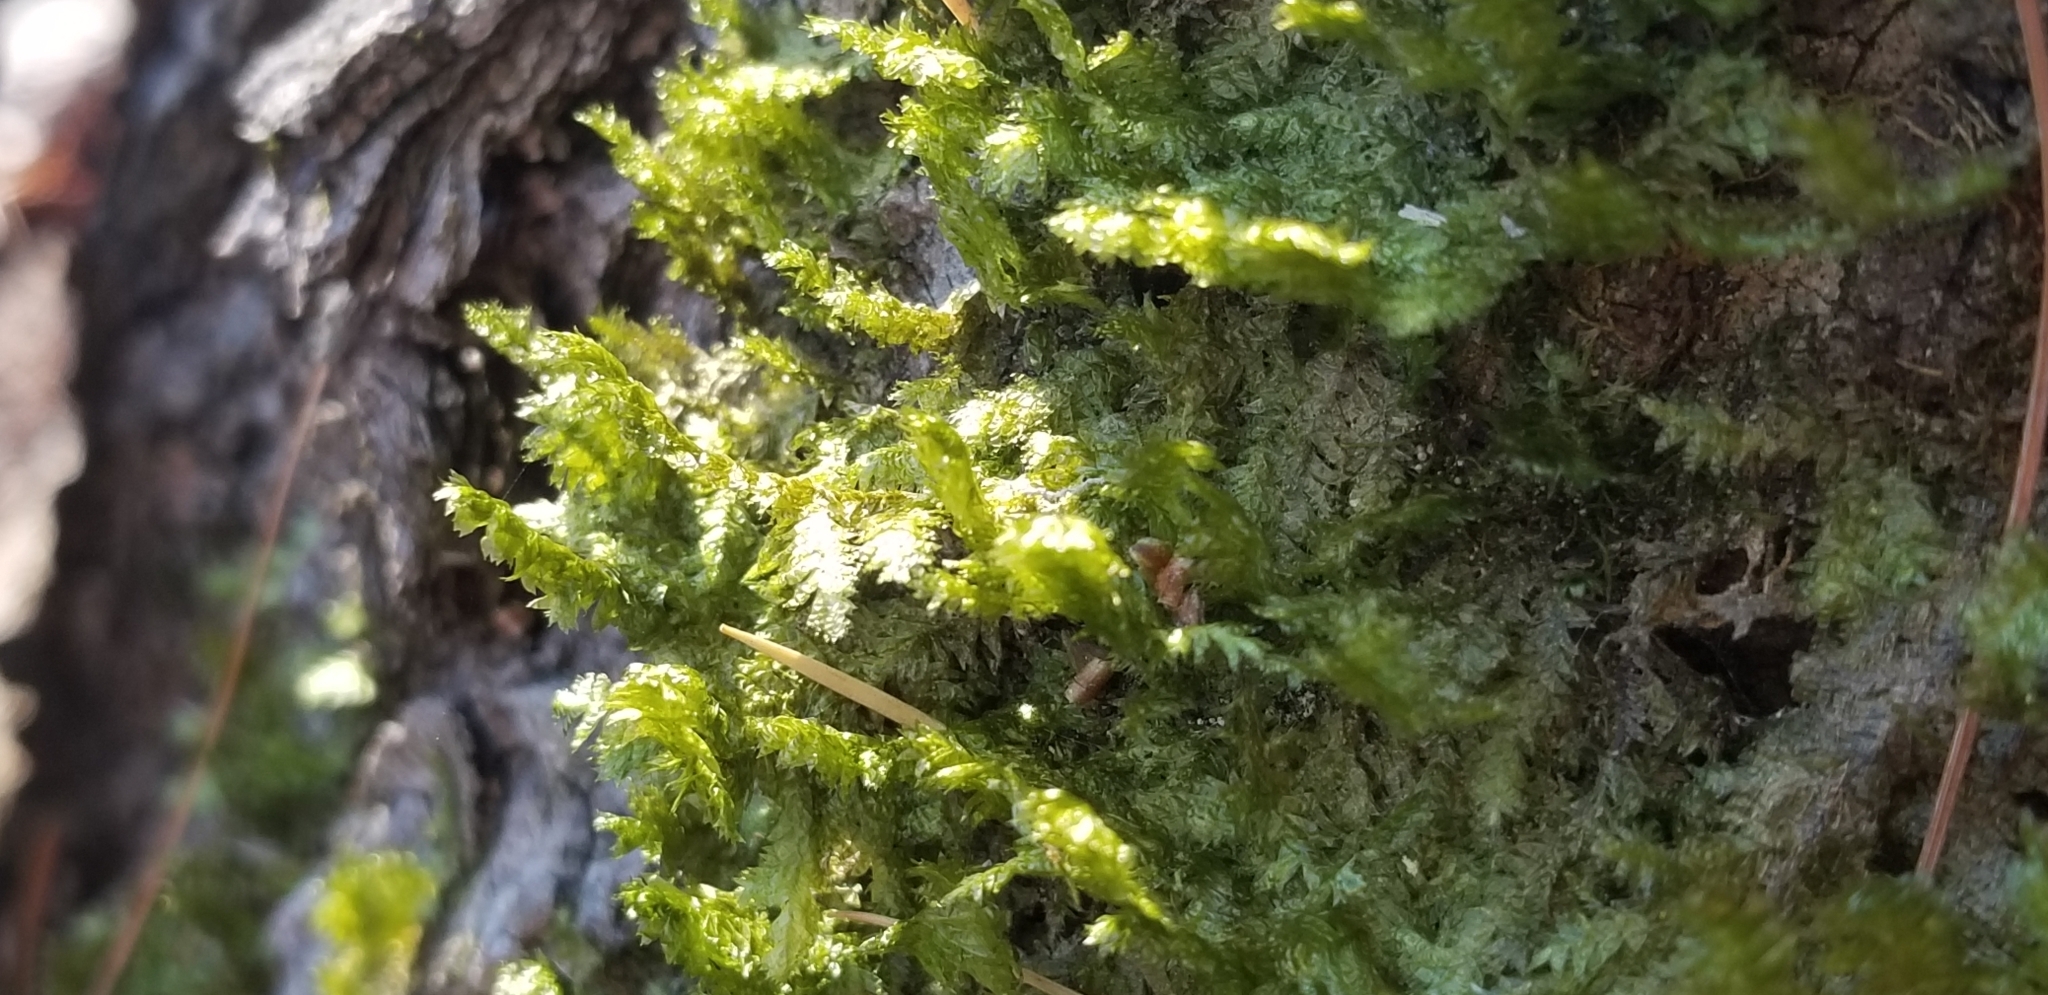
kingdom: Plantae
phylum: Bryophyta
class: Bryopsida
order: Hypnales
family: Neckeraceae
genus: Neckera
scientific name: Neckera pennata
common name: Feathery neckera
